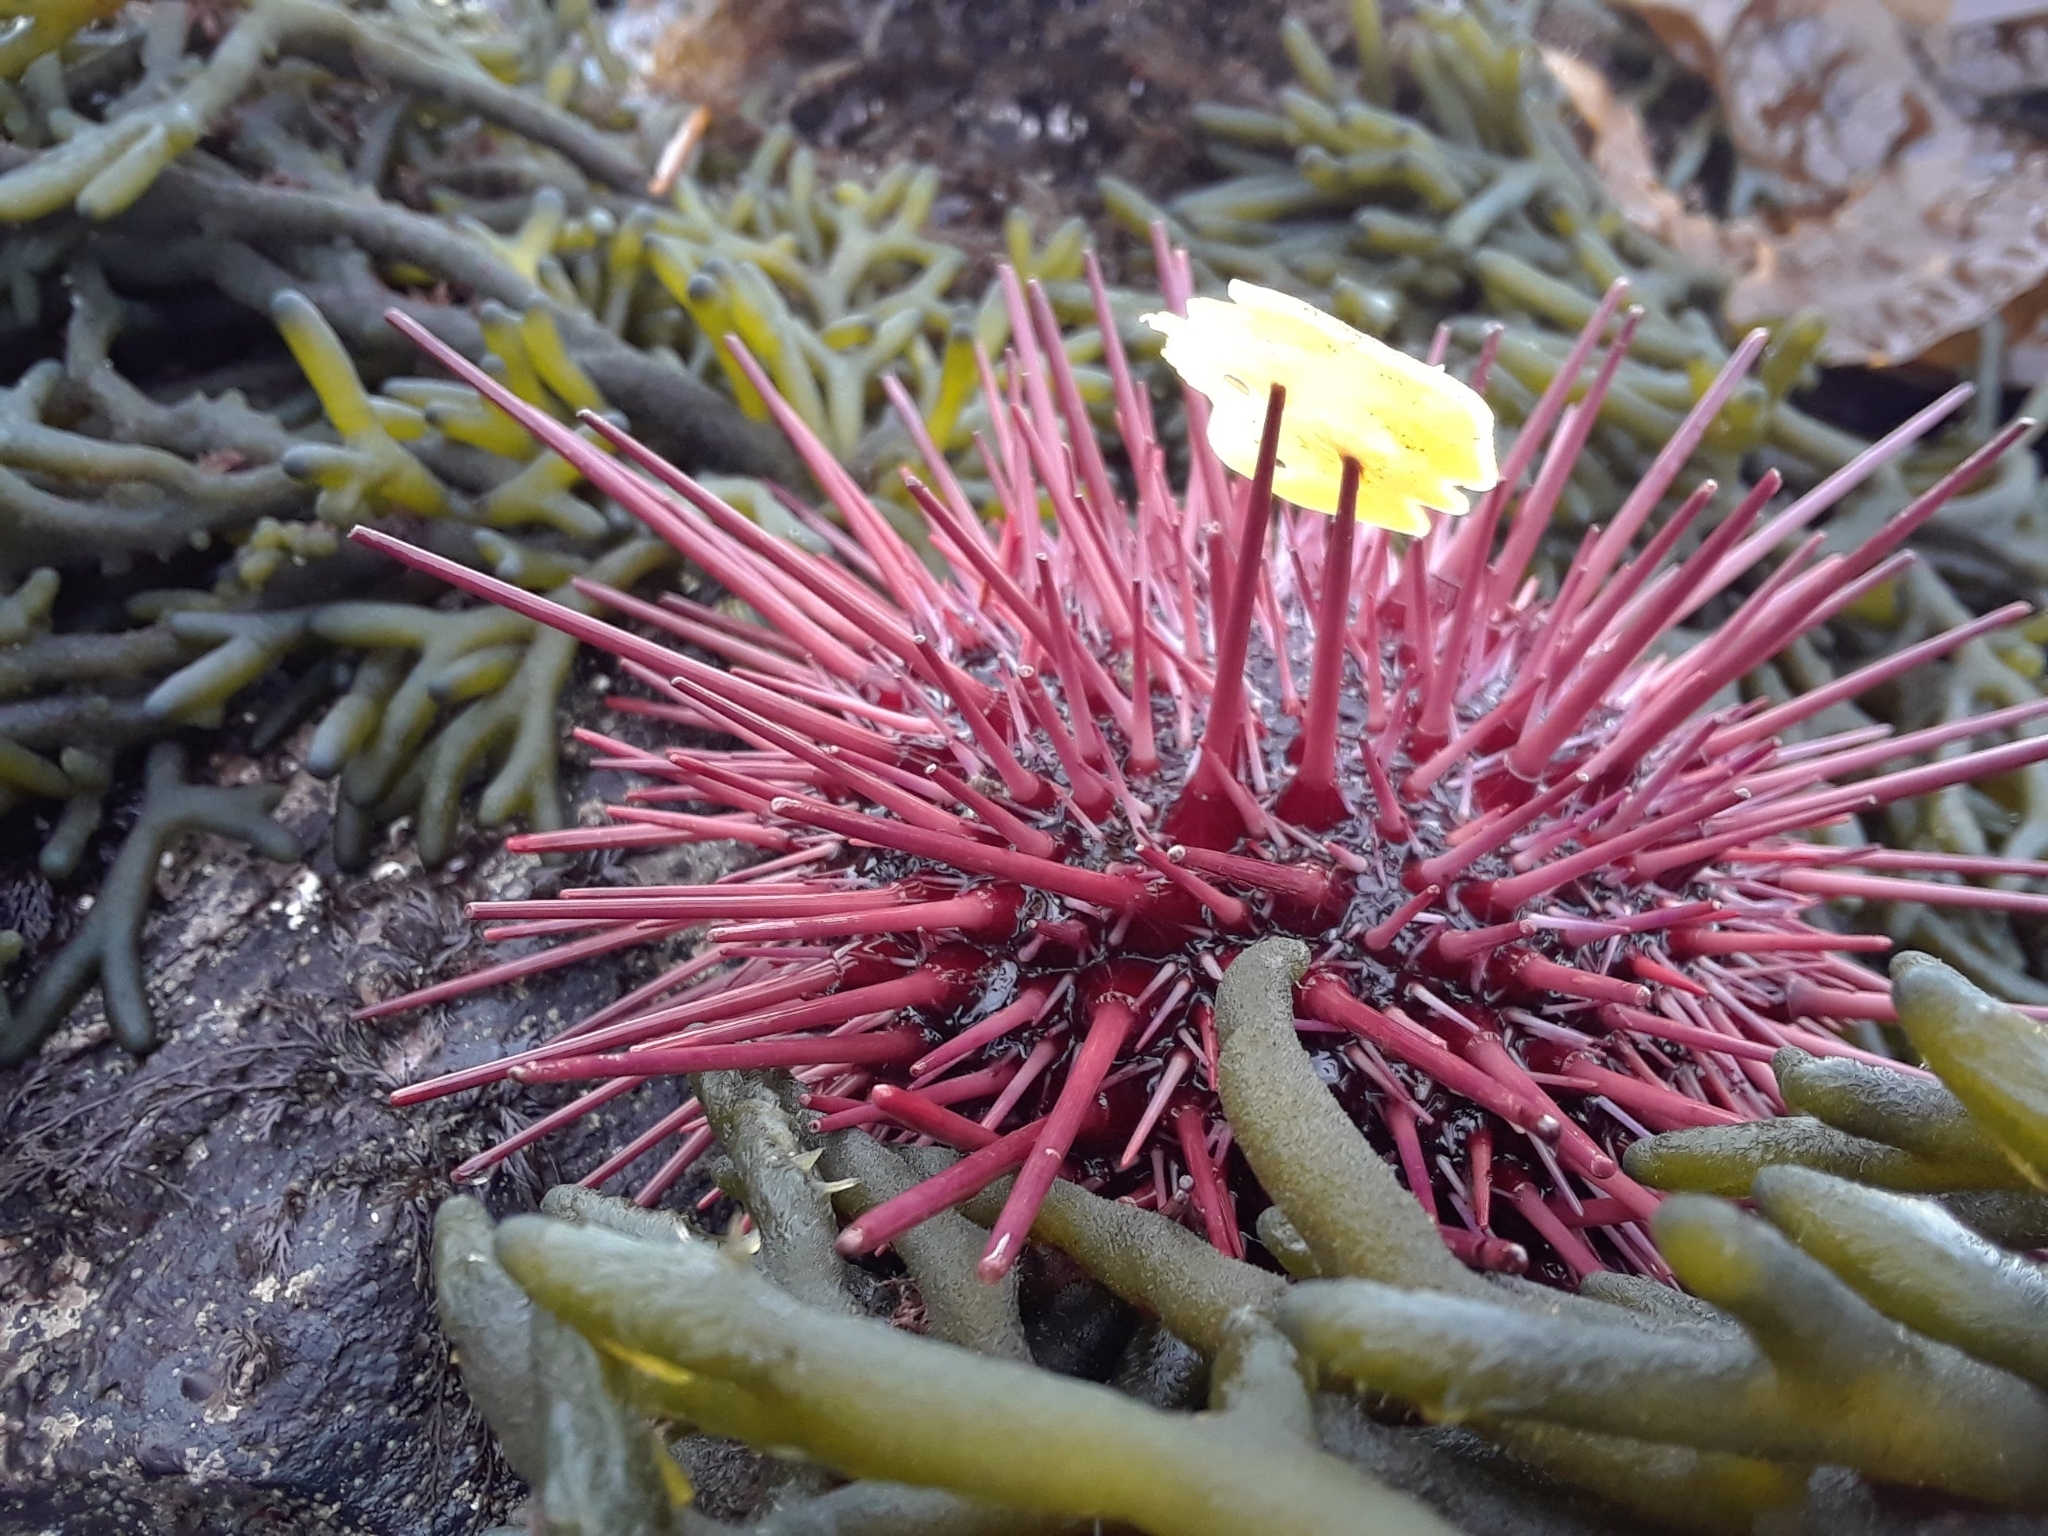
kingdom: Animalia
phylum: Echinodermata
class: Echinoidea
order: Camarodonta
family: Strongylocentrotidae
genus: Mesocentrotus
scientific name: Mesocentrotus franciscanus
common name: Red sea urchin
